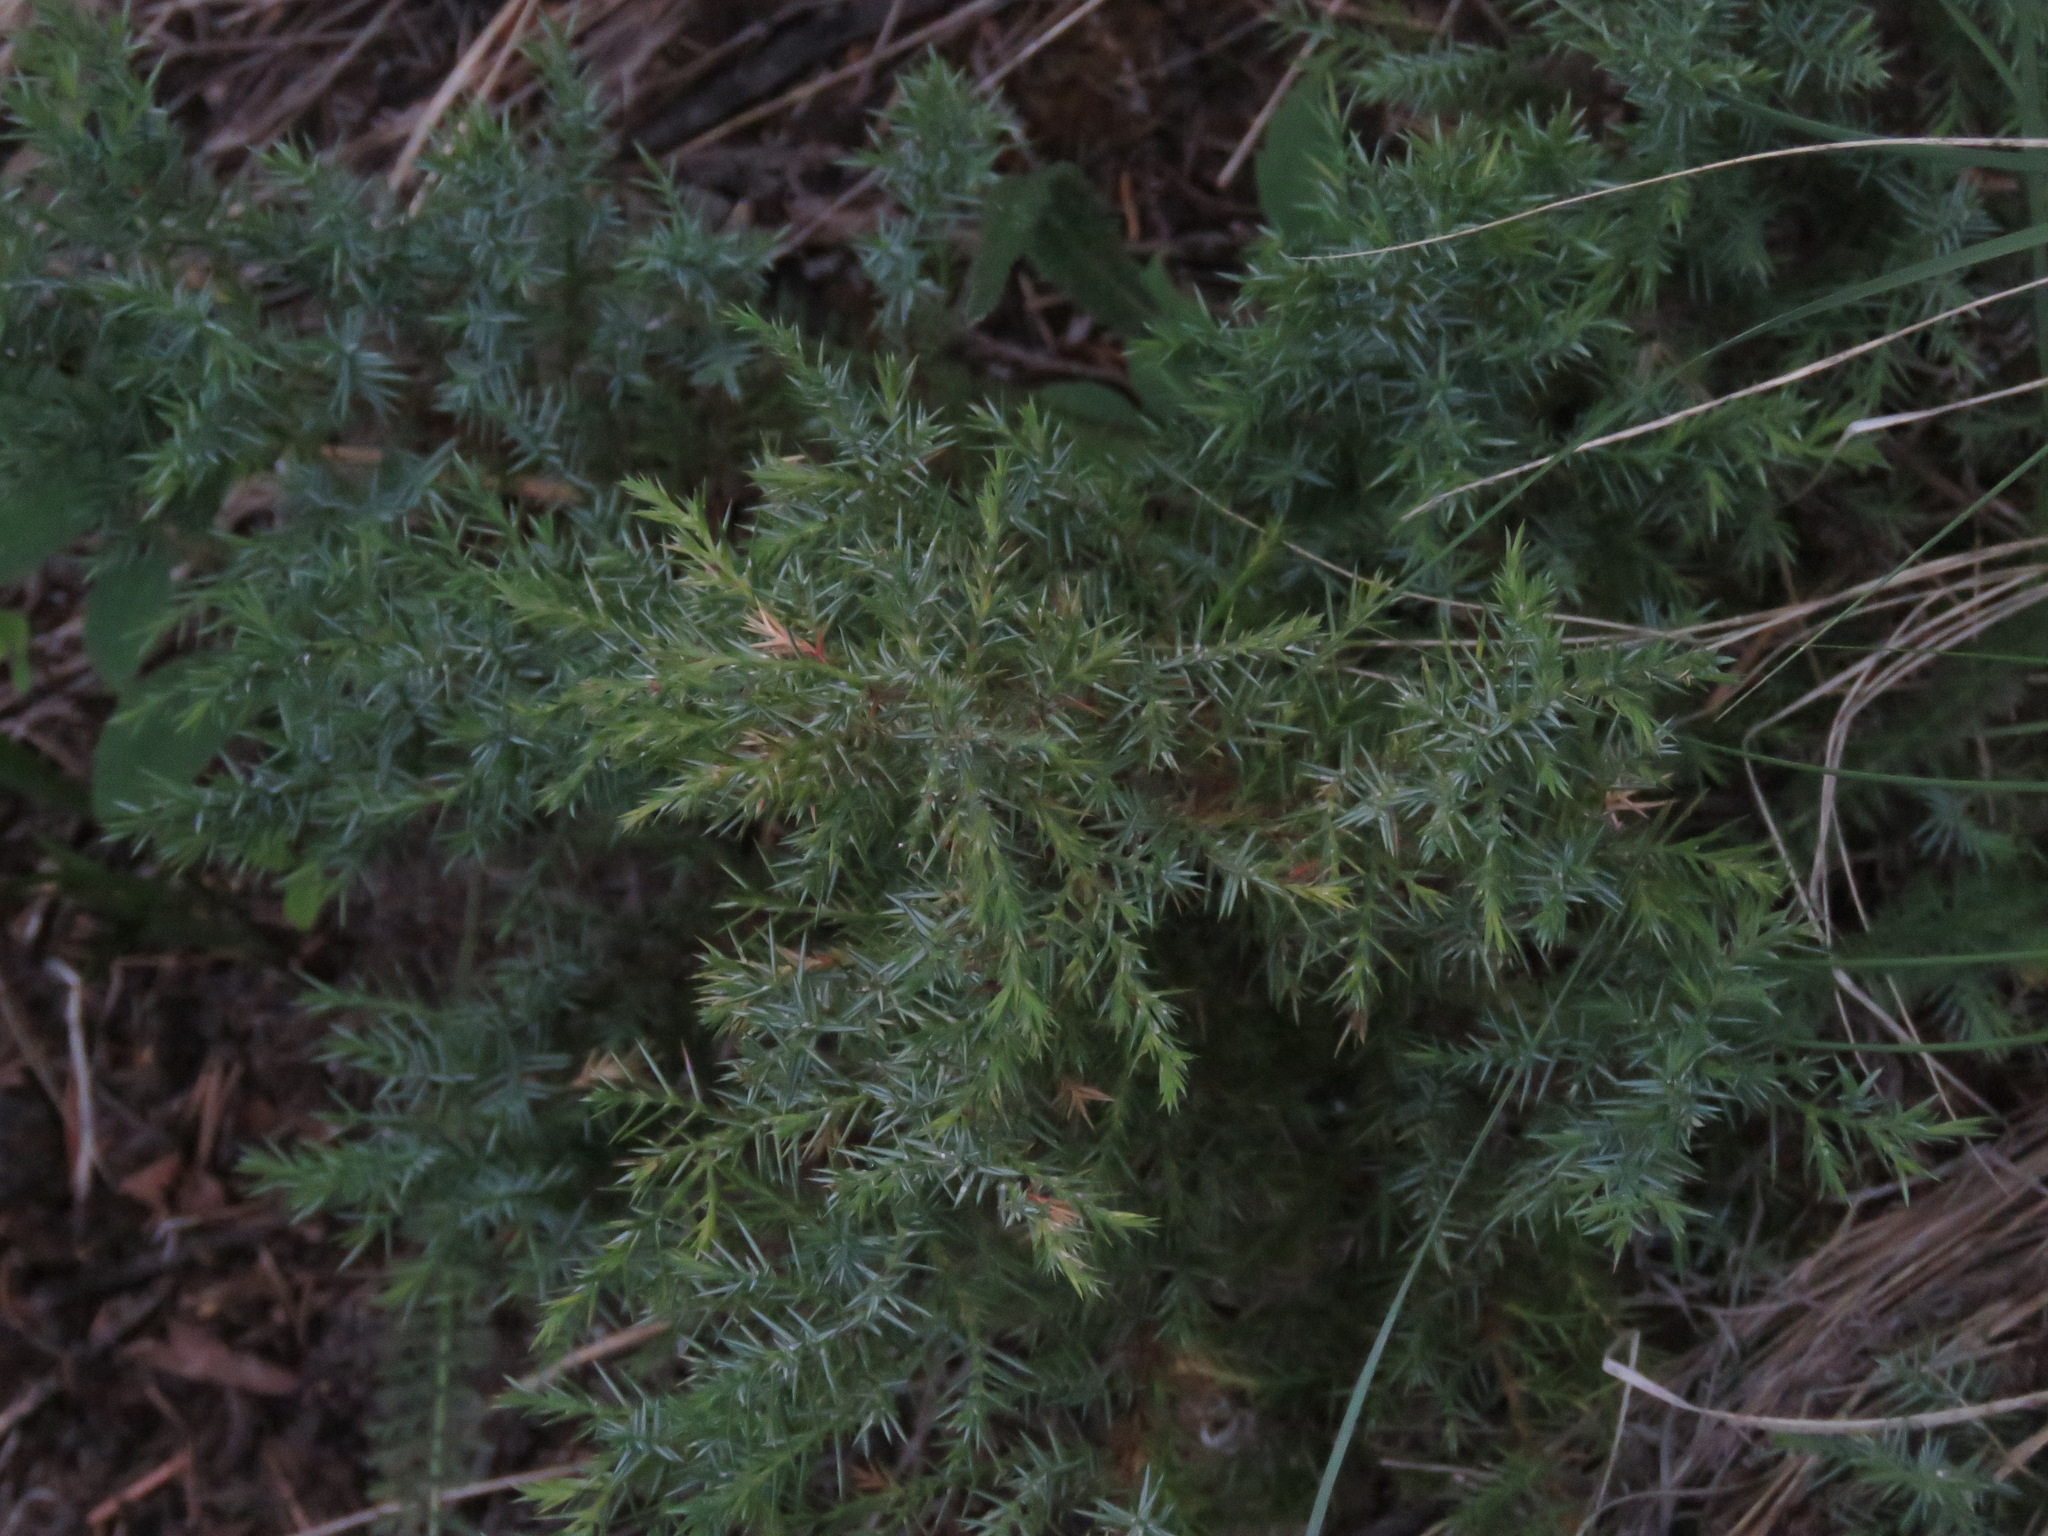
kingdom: Plantae
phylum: Tracheophyta
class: Pinopsida
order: Pinales
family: Cupressaceae
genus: Juniperus
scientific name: Juniperus communis
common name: Common juniper
